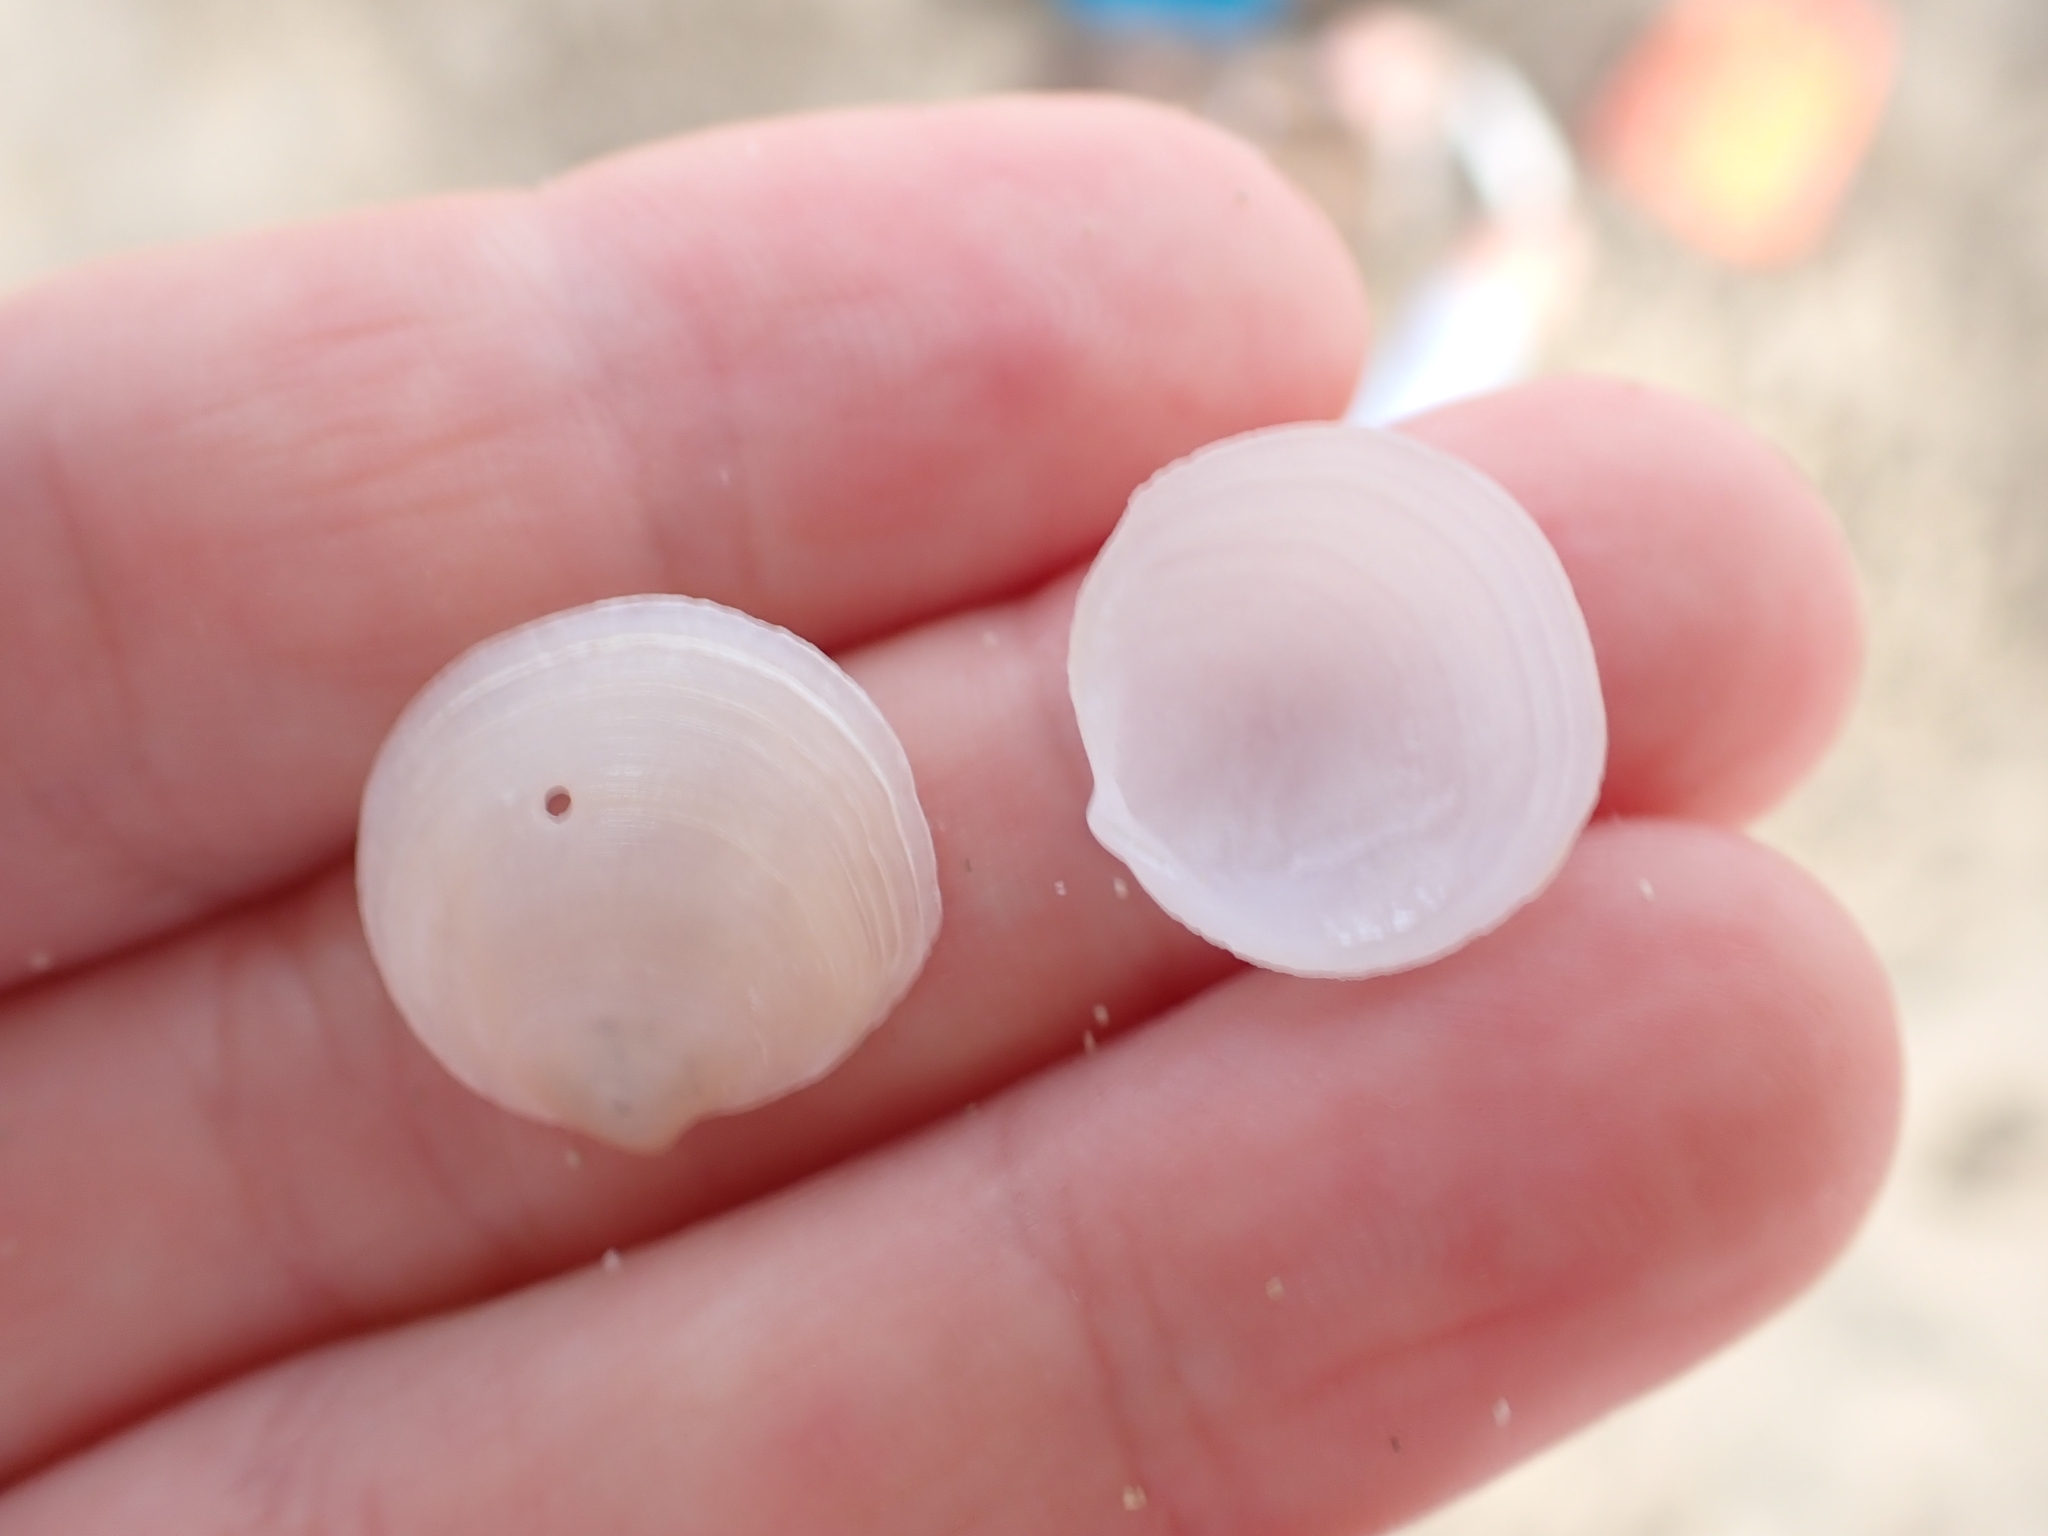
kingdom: Animalia
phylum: Mollusca
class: Bivalvia
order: Lucinida
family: Lucinidae
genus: Loripes
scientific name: Loripes orbiculatus
